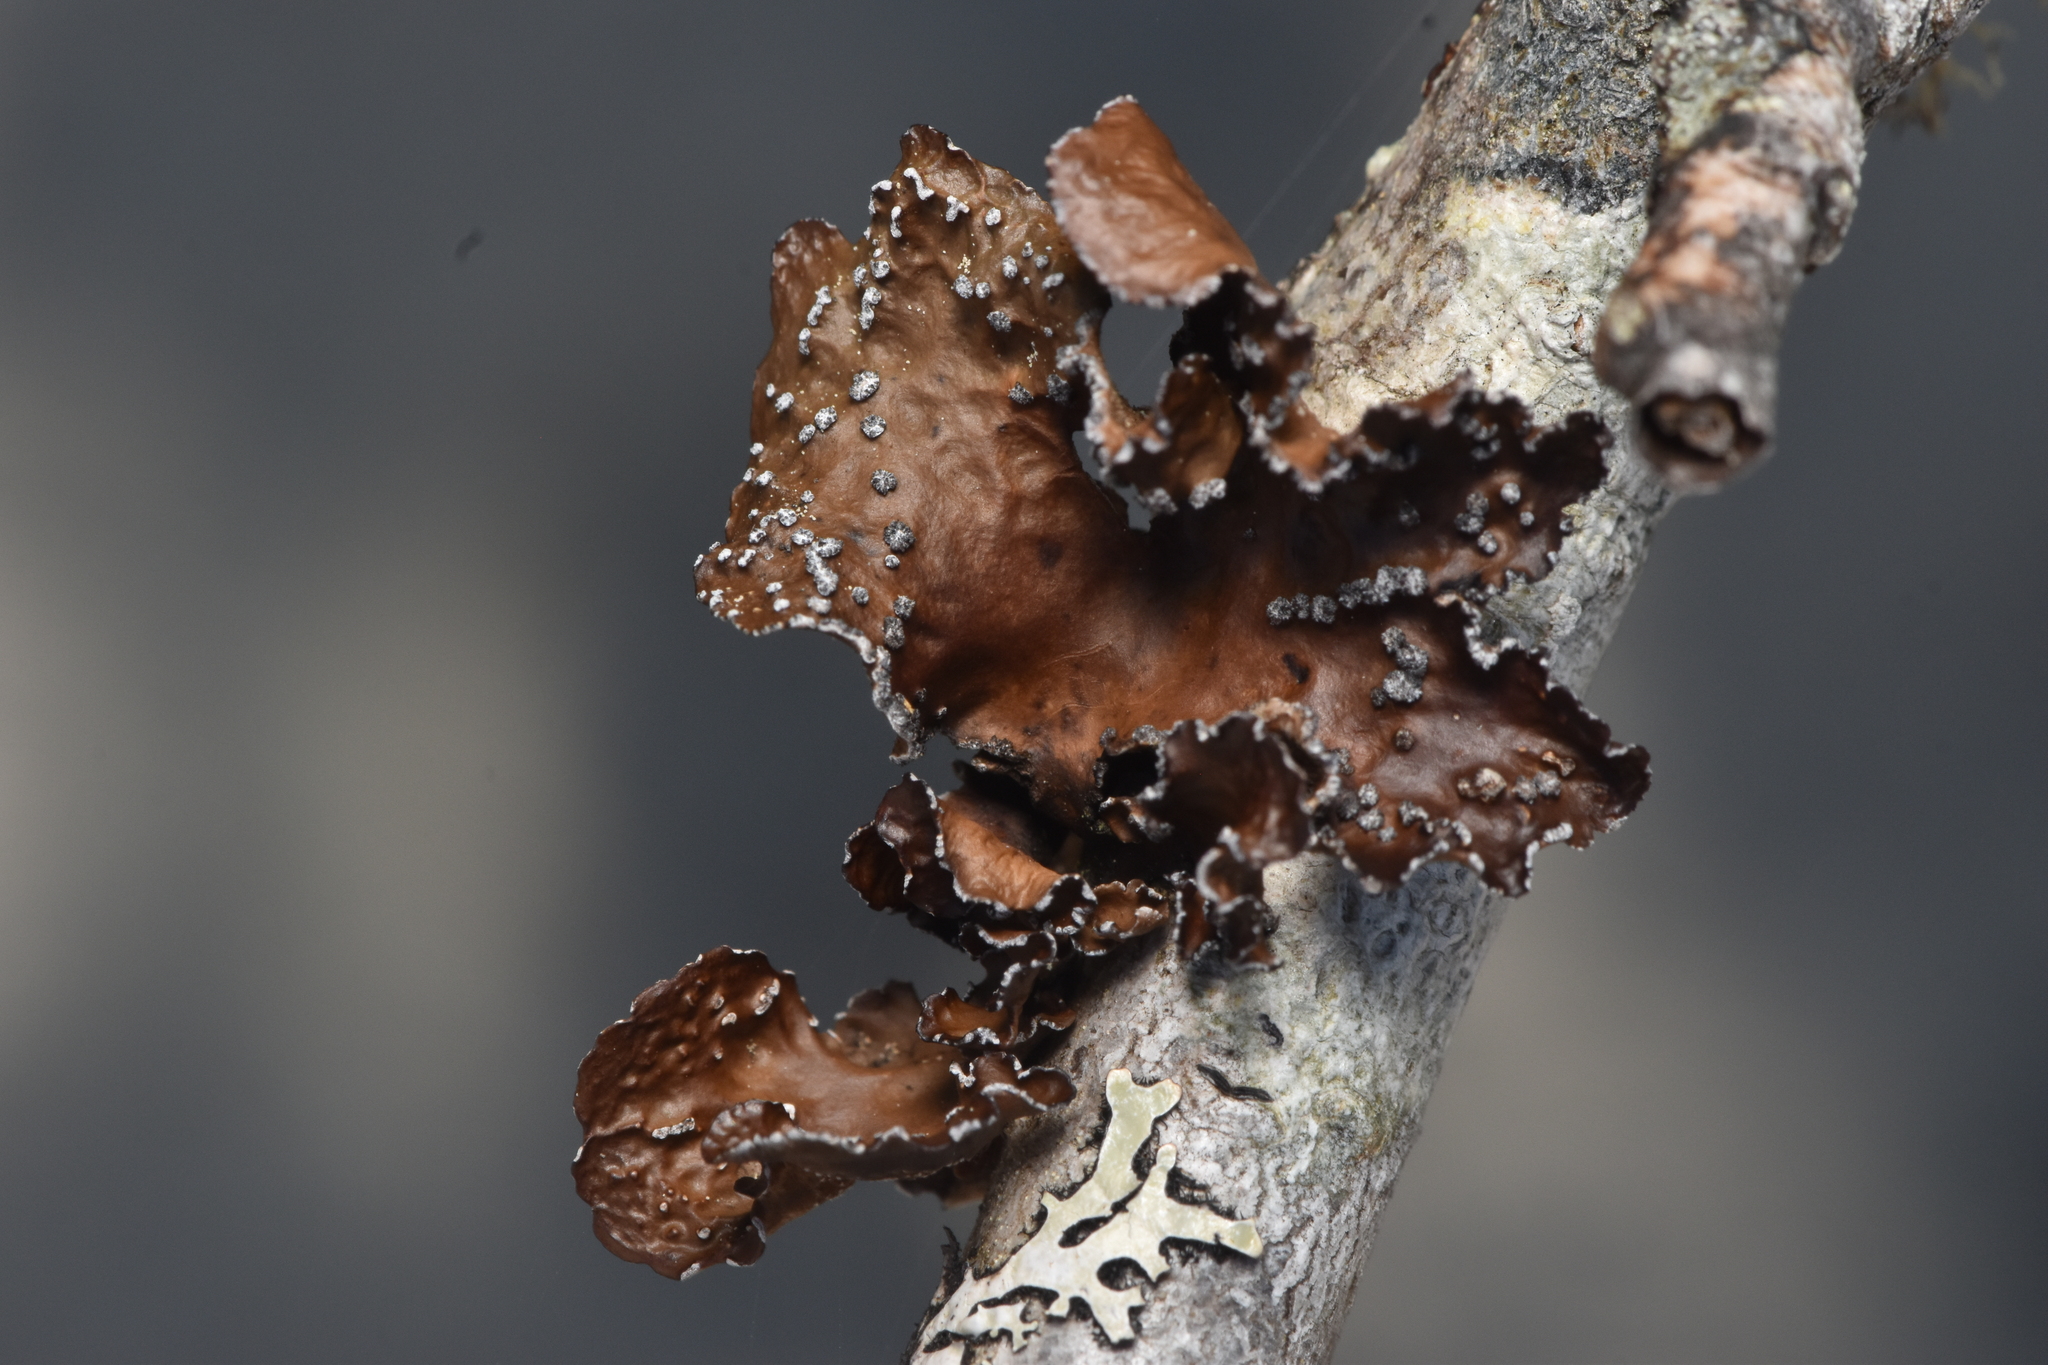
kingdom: Fungi
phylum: Ascomycota
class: Lecanoromycetes
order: Peltigerales
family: Lobariaceae
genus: Lobaria
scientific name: Lobaria anomala
